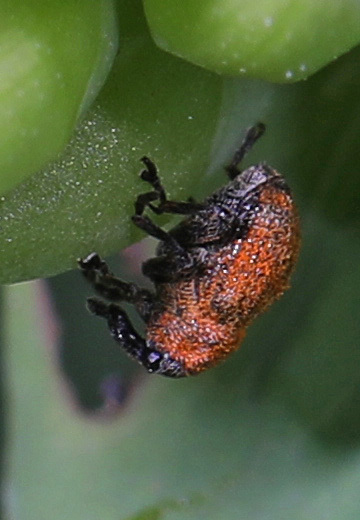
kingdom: Animalia
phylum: Arthropoda
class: Insecta
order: Coleoptera
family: Curculionidae
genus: Rhinoncomimus
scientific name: Rhinoncomimus latipes
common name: Chinese weevil
